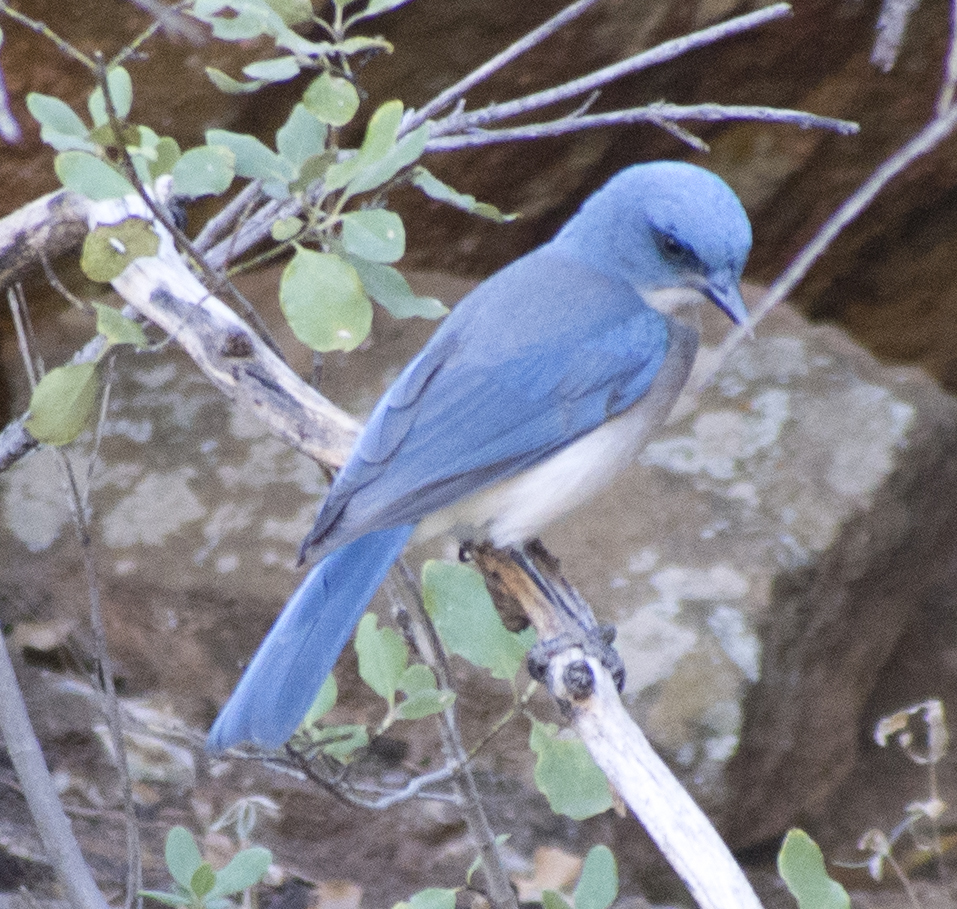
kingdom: Animalia
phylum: Chordata
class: Aves
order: Passeriformes
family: Corvidae
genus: Aphelocoma
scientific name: Aphelocoma wollweberi
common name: Mexican jay
